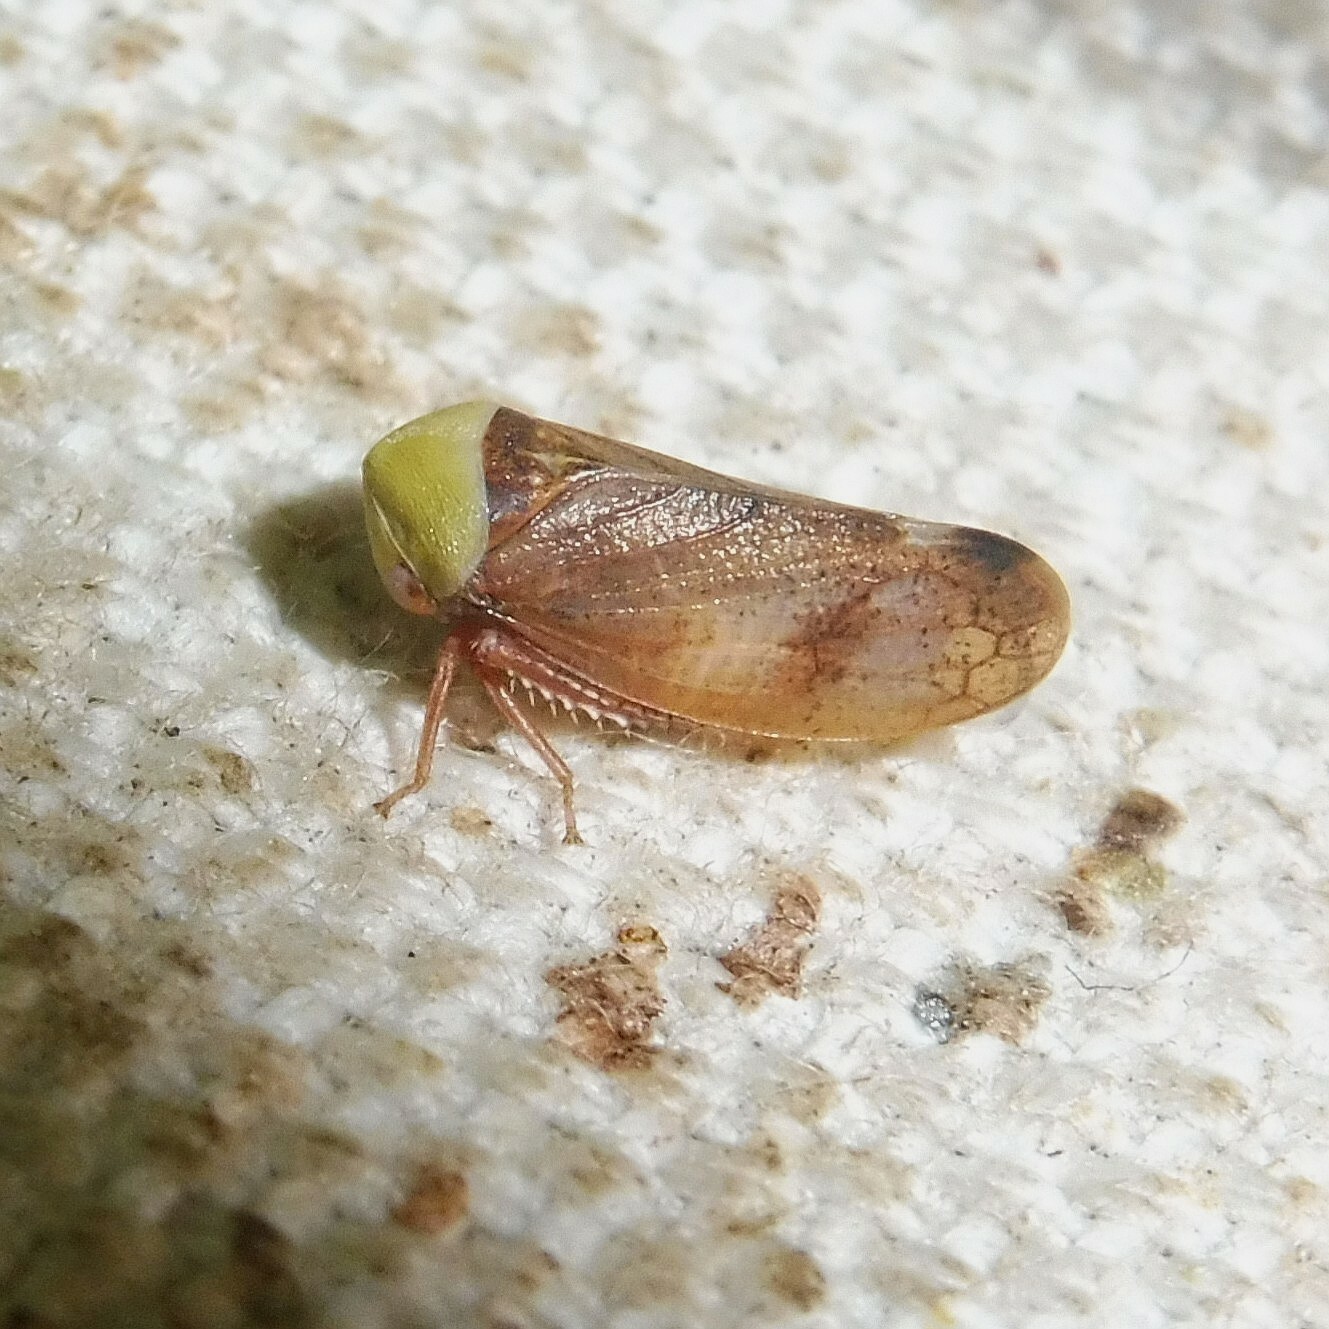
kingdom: Animalia
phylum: Arthropoda
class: Insecta
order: Hemiptera
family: Cicadellidae
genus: Pediopsis
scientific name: Pediopsis tiliae
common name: Leafhopper
